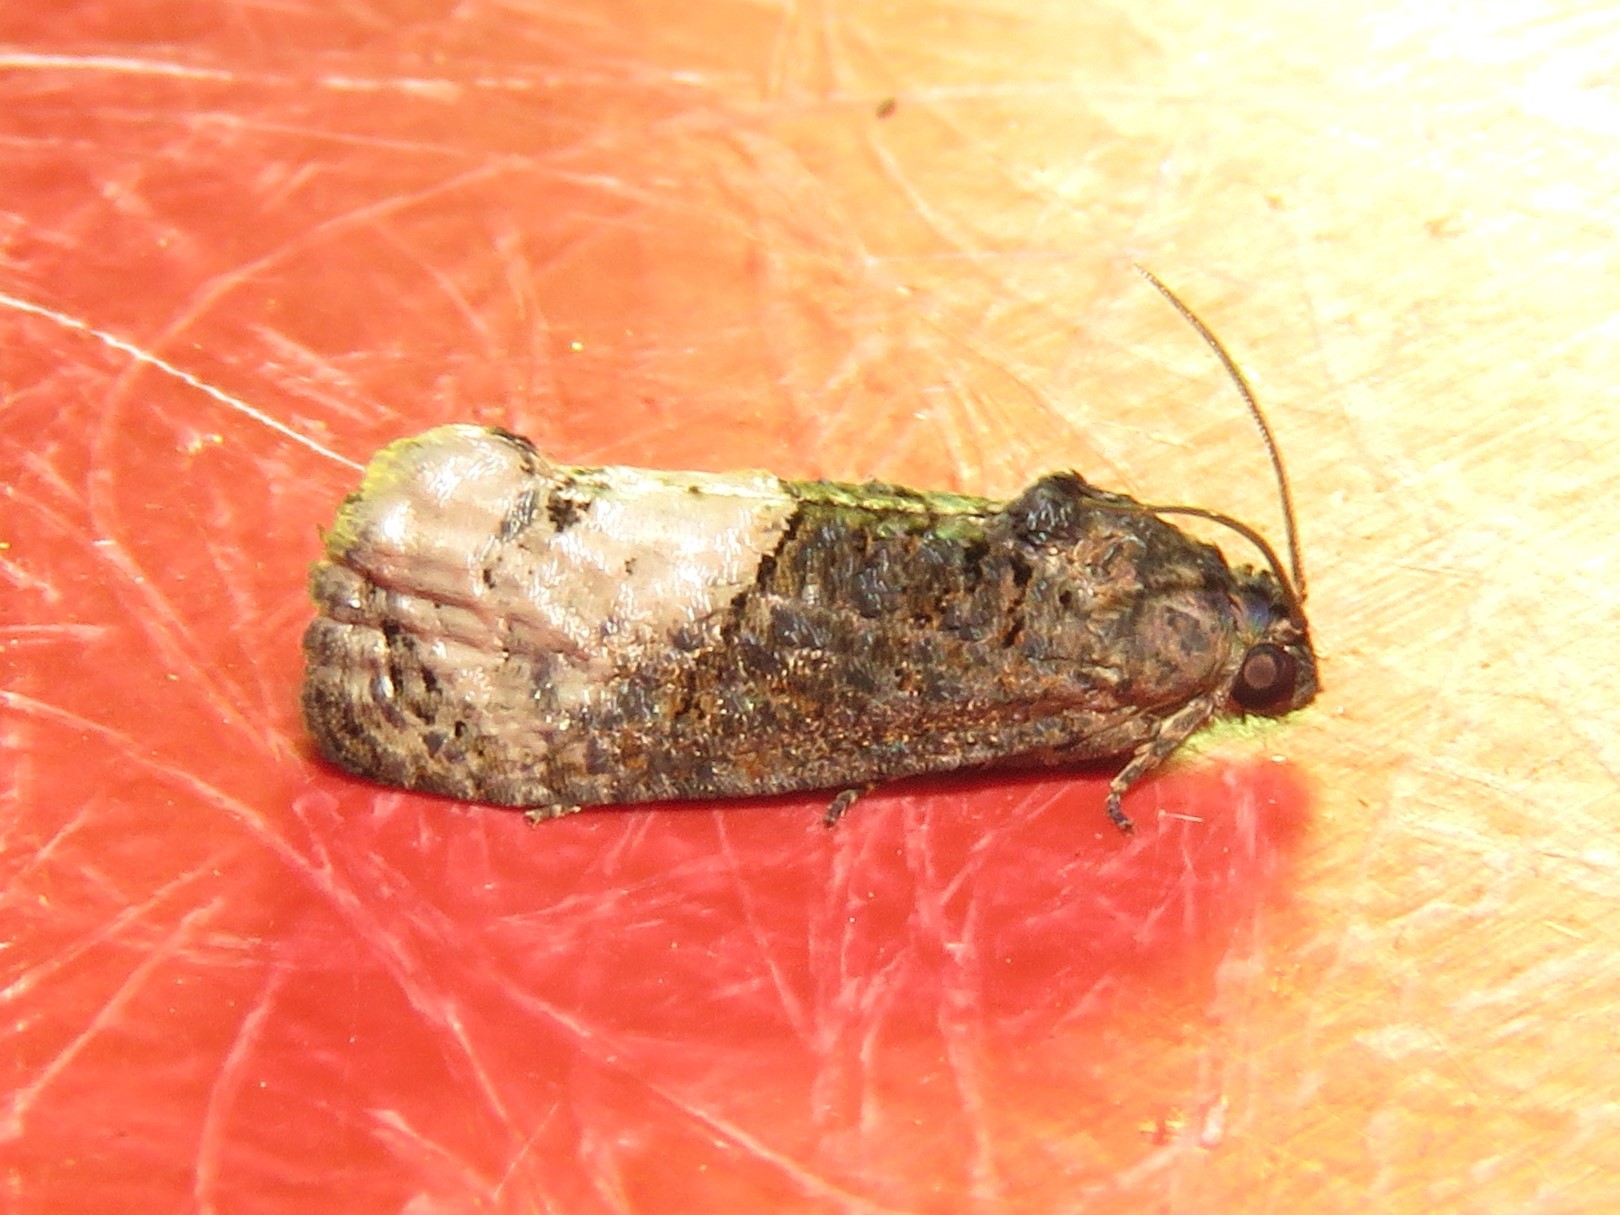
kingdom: Animalia
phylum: Arthropoda
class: Insecta
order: Lepidoptera
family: Tortricidae
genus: Ecdytolopha
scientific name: Ecdytolopha insiticiana
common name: Locust twig borer moth
